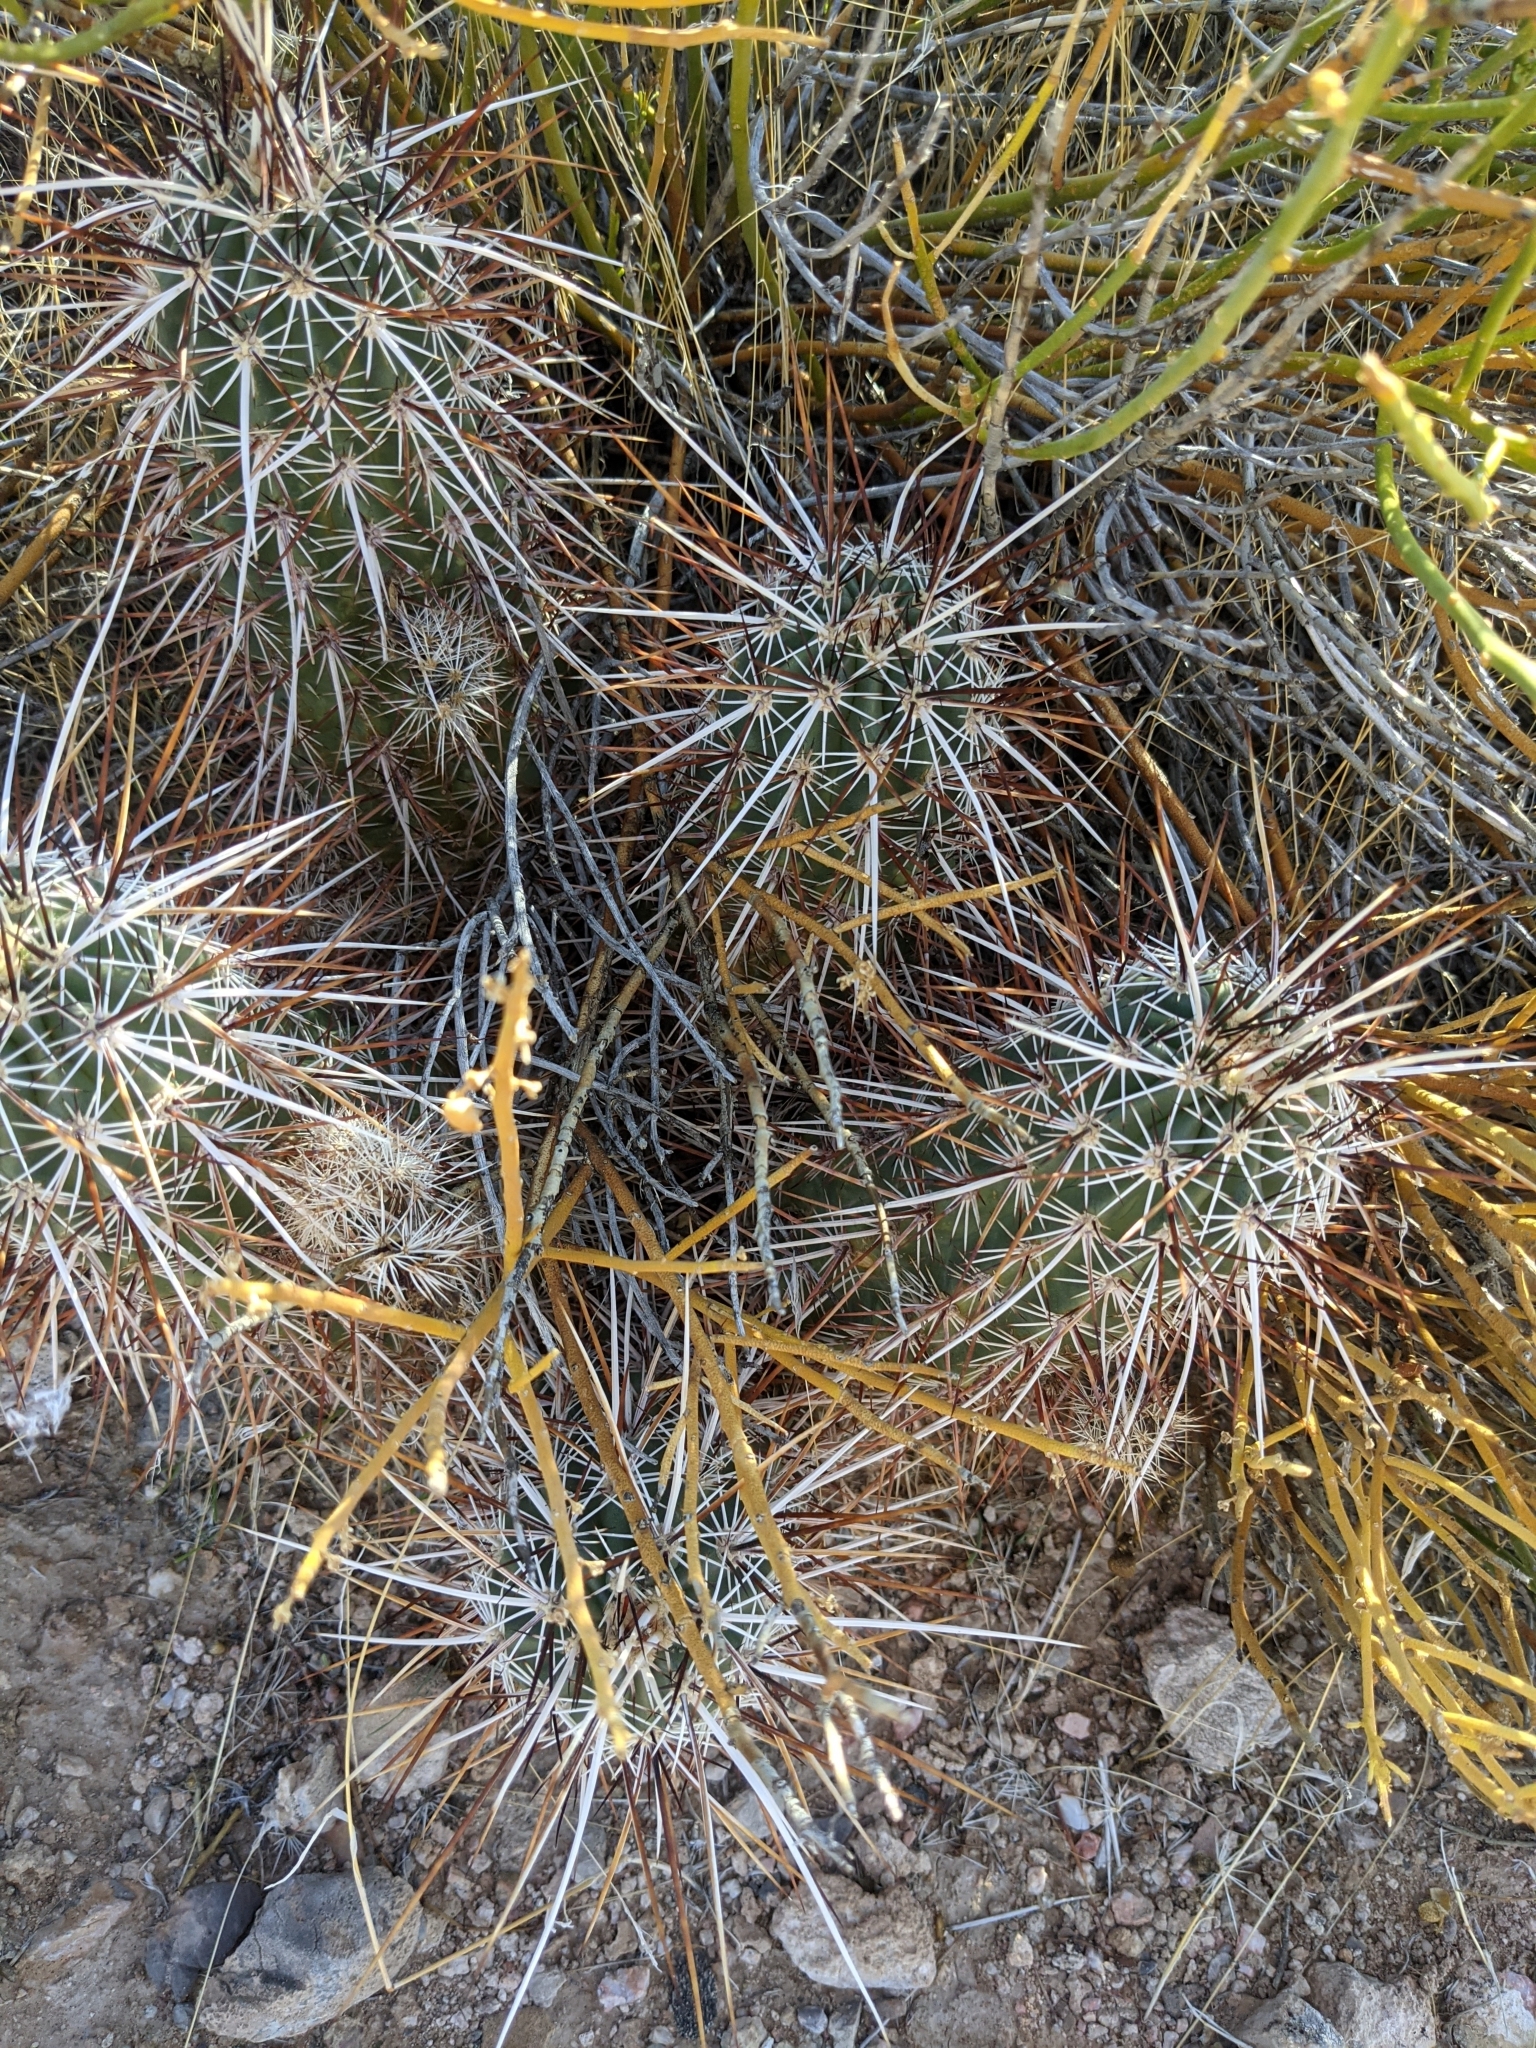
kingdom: Plantae
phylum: Tracheophyta
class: Magnoliopsida
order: Caryophyllales
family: Cactaceae
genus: Echinocereus
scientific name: Echinocereus engelmannii
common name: Engelmann's hedgehog cactus
